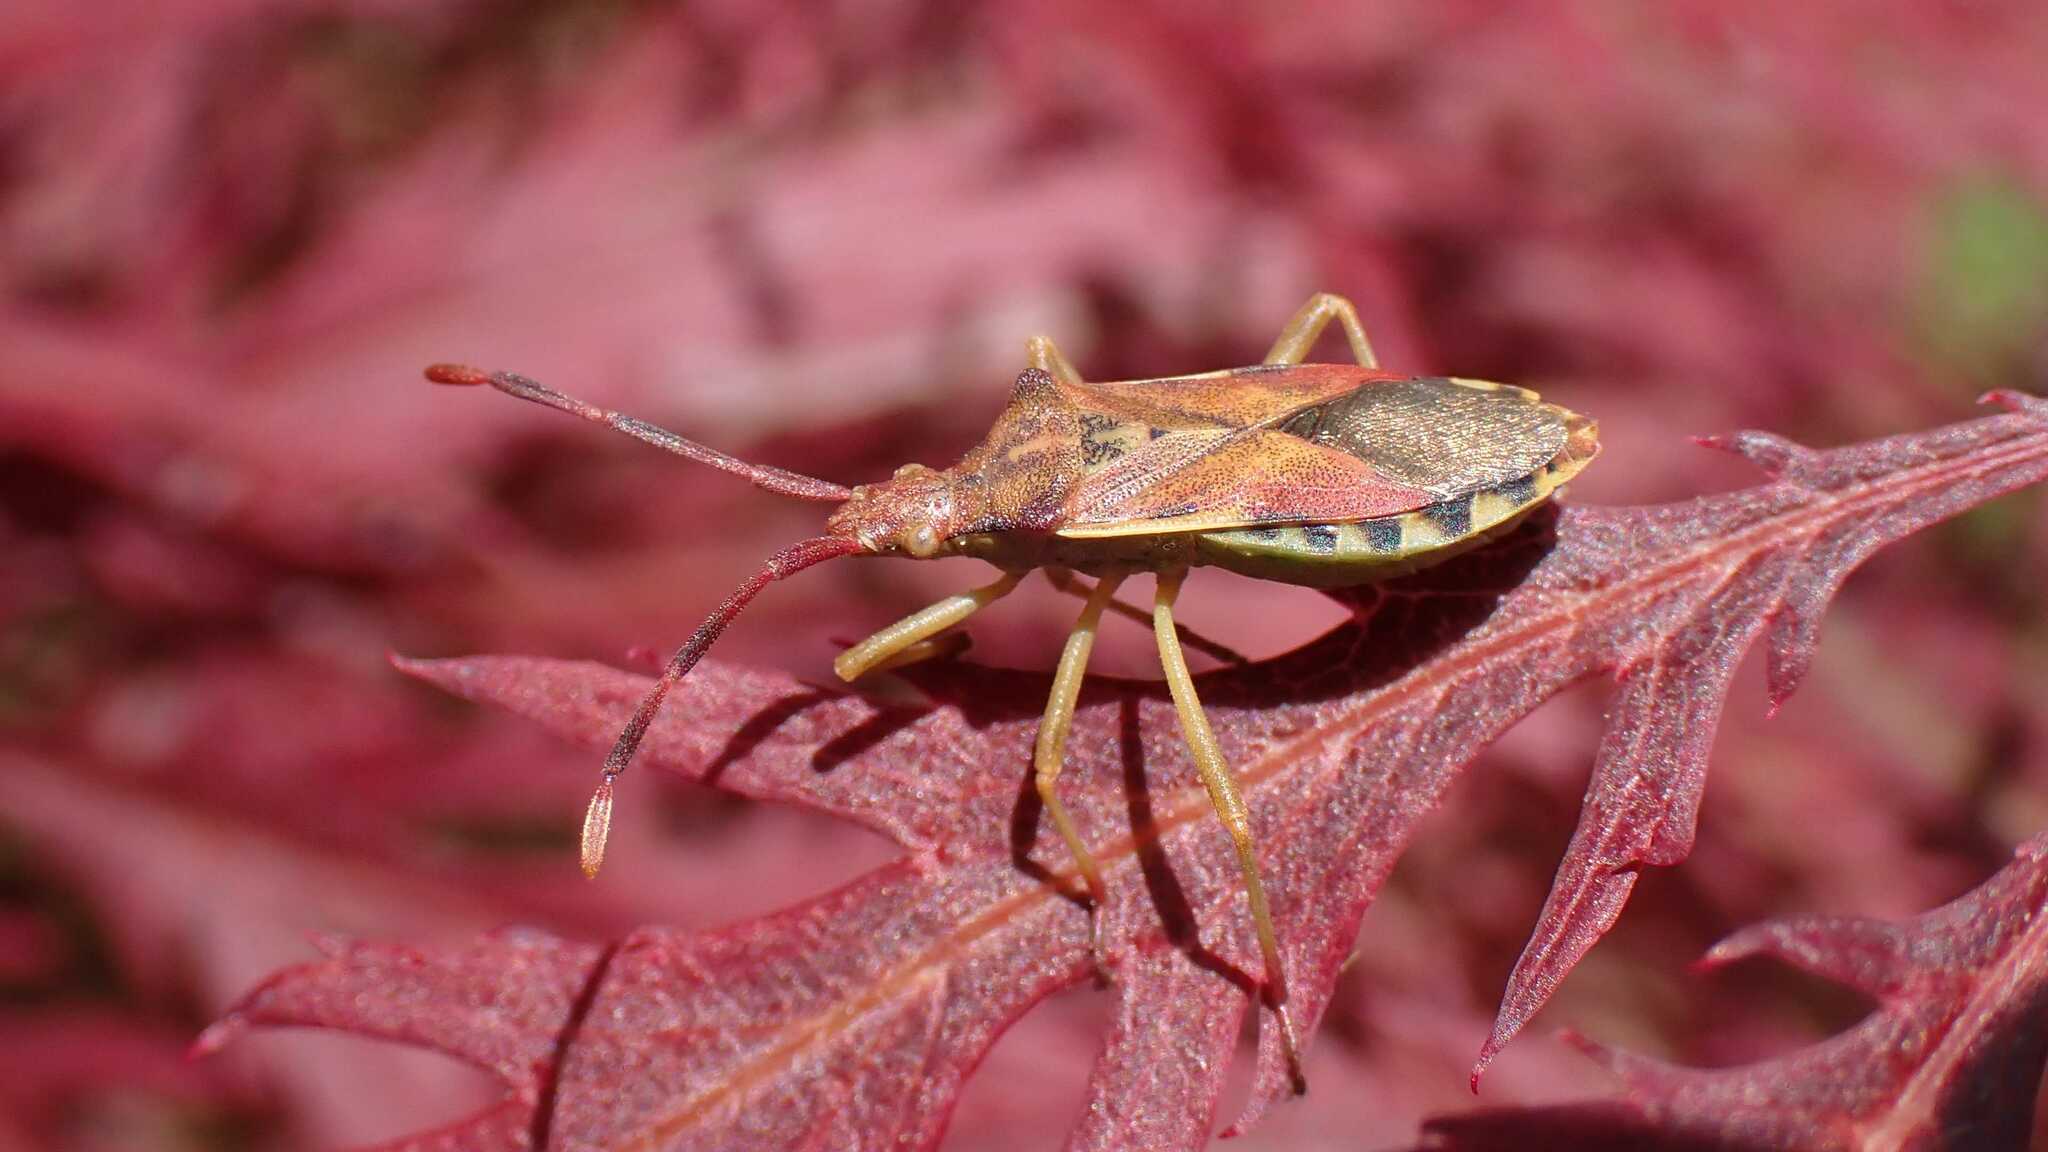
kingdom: Animalia
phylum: Arthropoda
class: Insecta
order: Hemiptera
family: Coreidae
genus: Gonocerus
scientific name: Gonocerus juniperi
